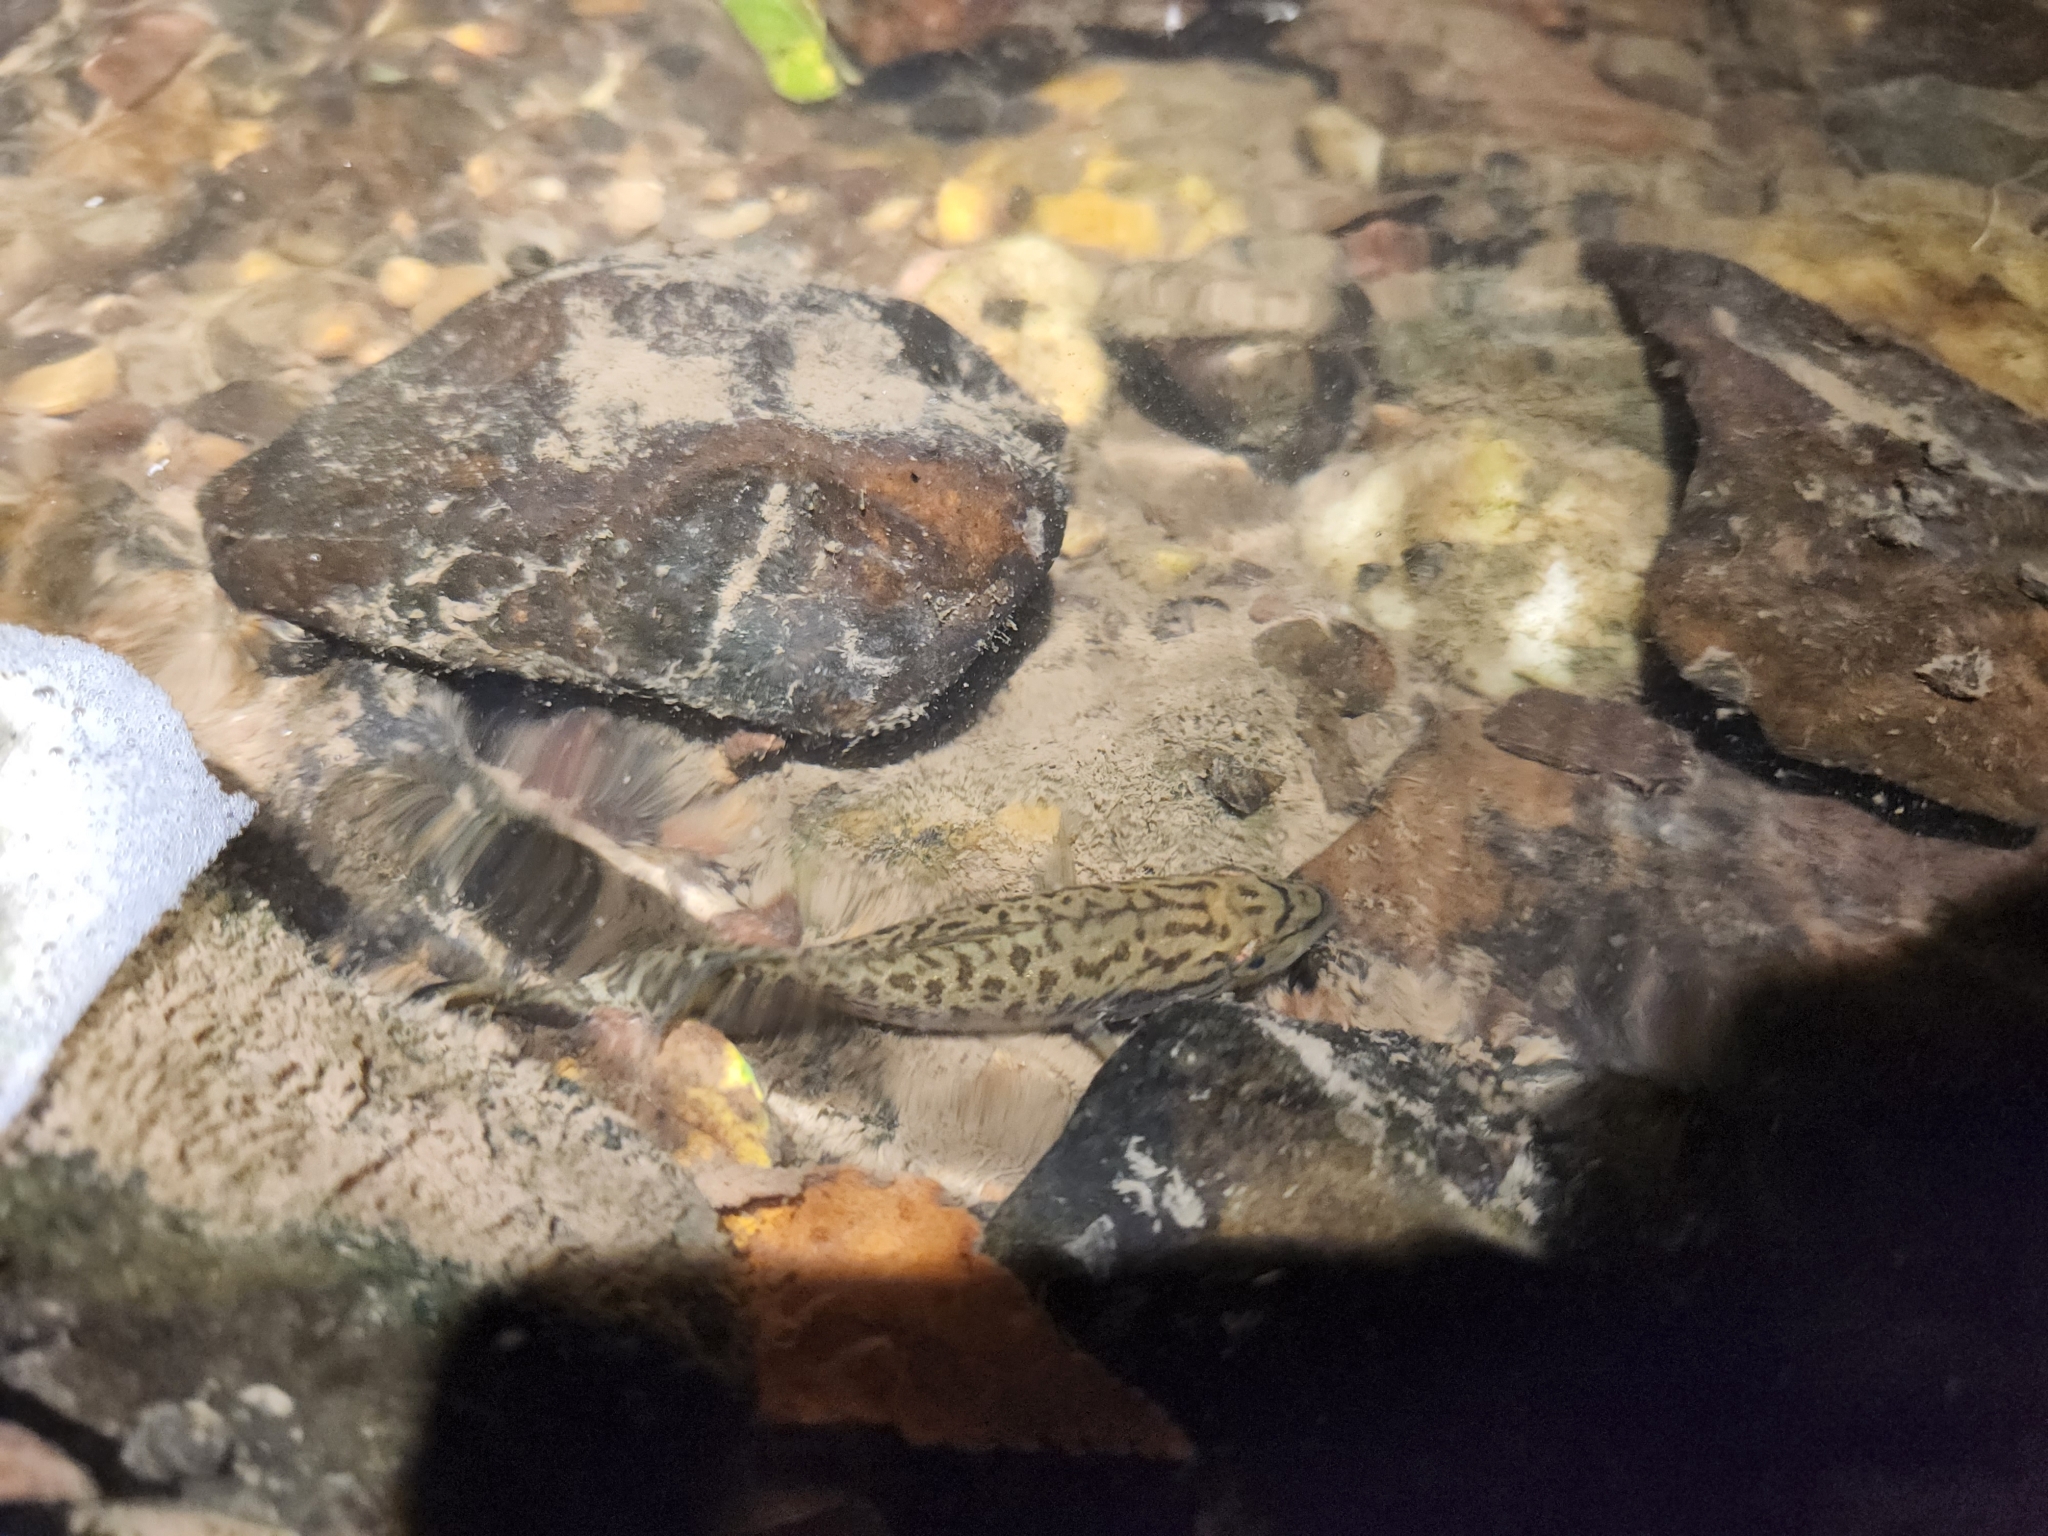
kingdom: Animalia
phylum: Chordata
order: Perciformes
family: Centrarchidae
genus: Micropterus
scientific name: Micropterus dolomieu
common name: Smallmouth bass
